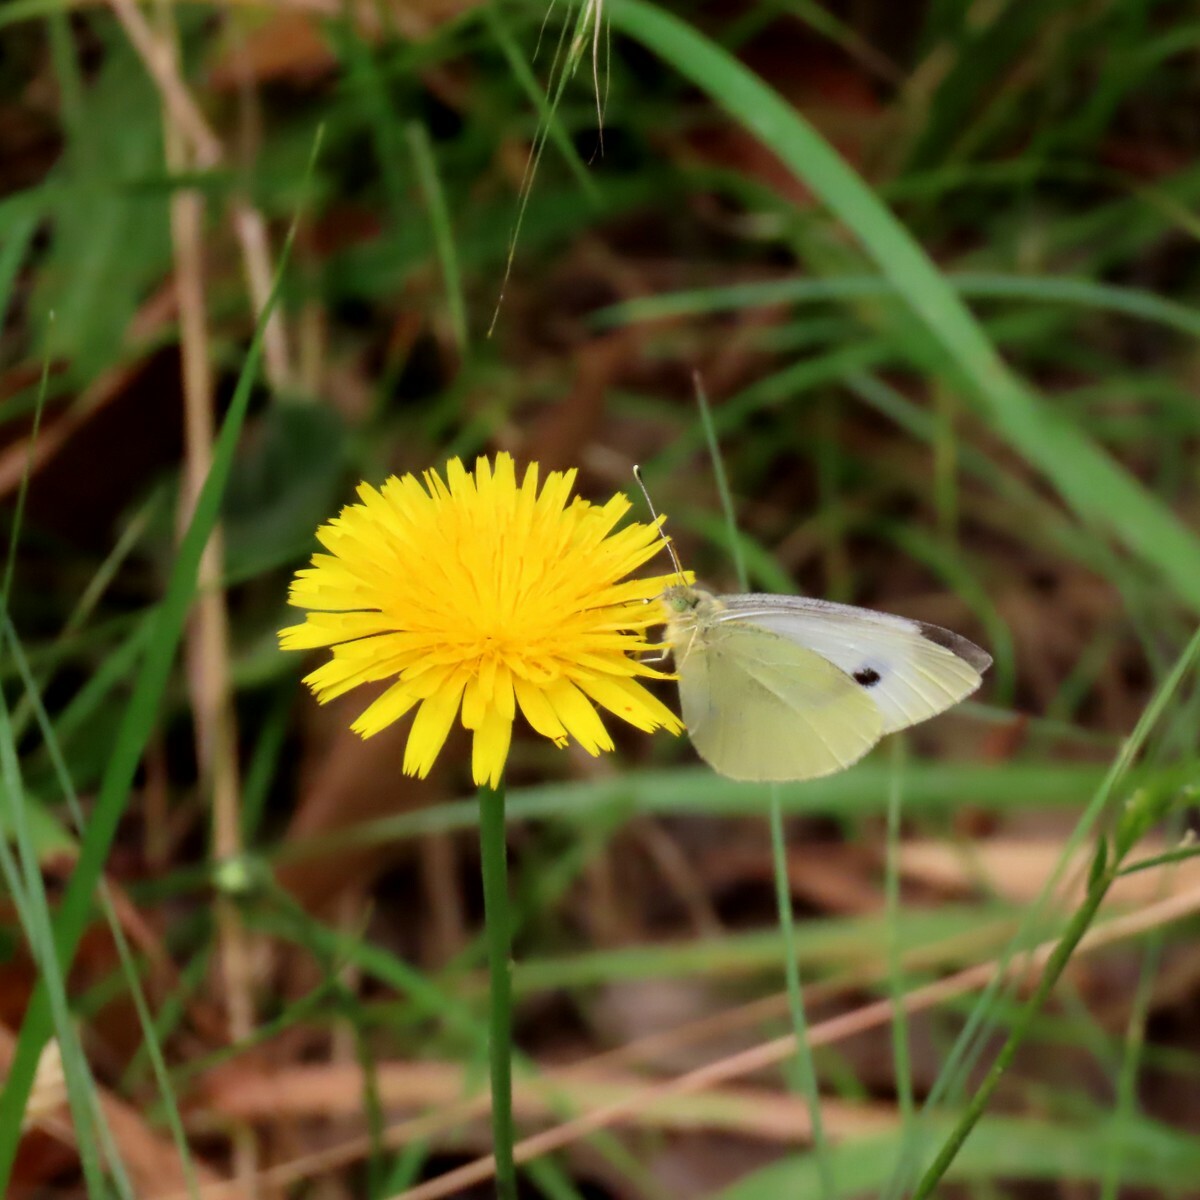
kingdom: Animalia
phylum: Arthropoda
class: Insecta
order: Lepidoptera
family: Pieridae
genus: Pieris
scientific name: Pieris rapae
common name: Small white
